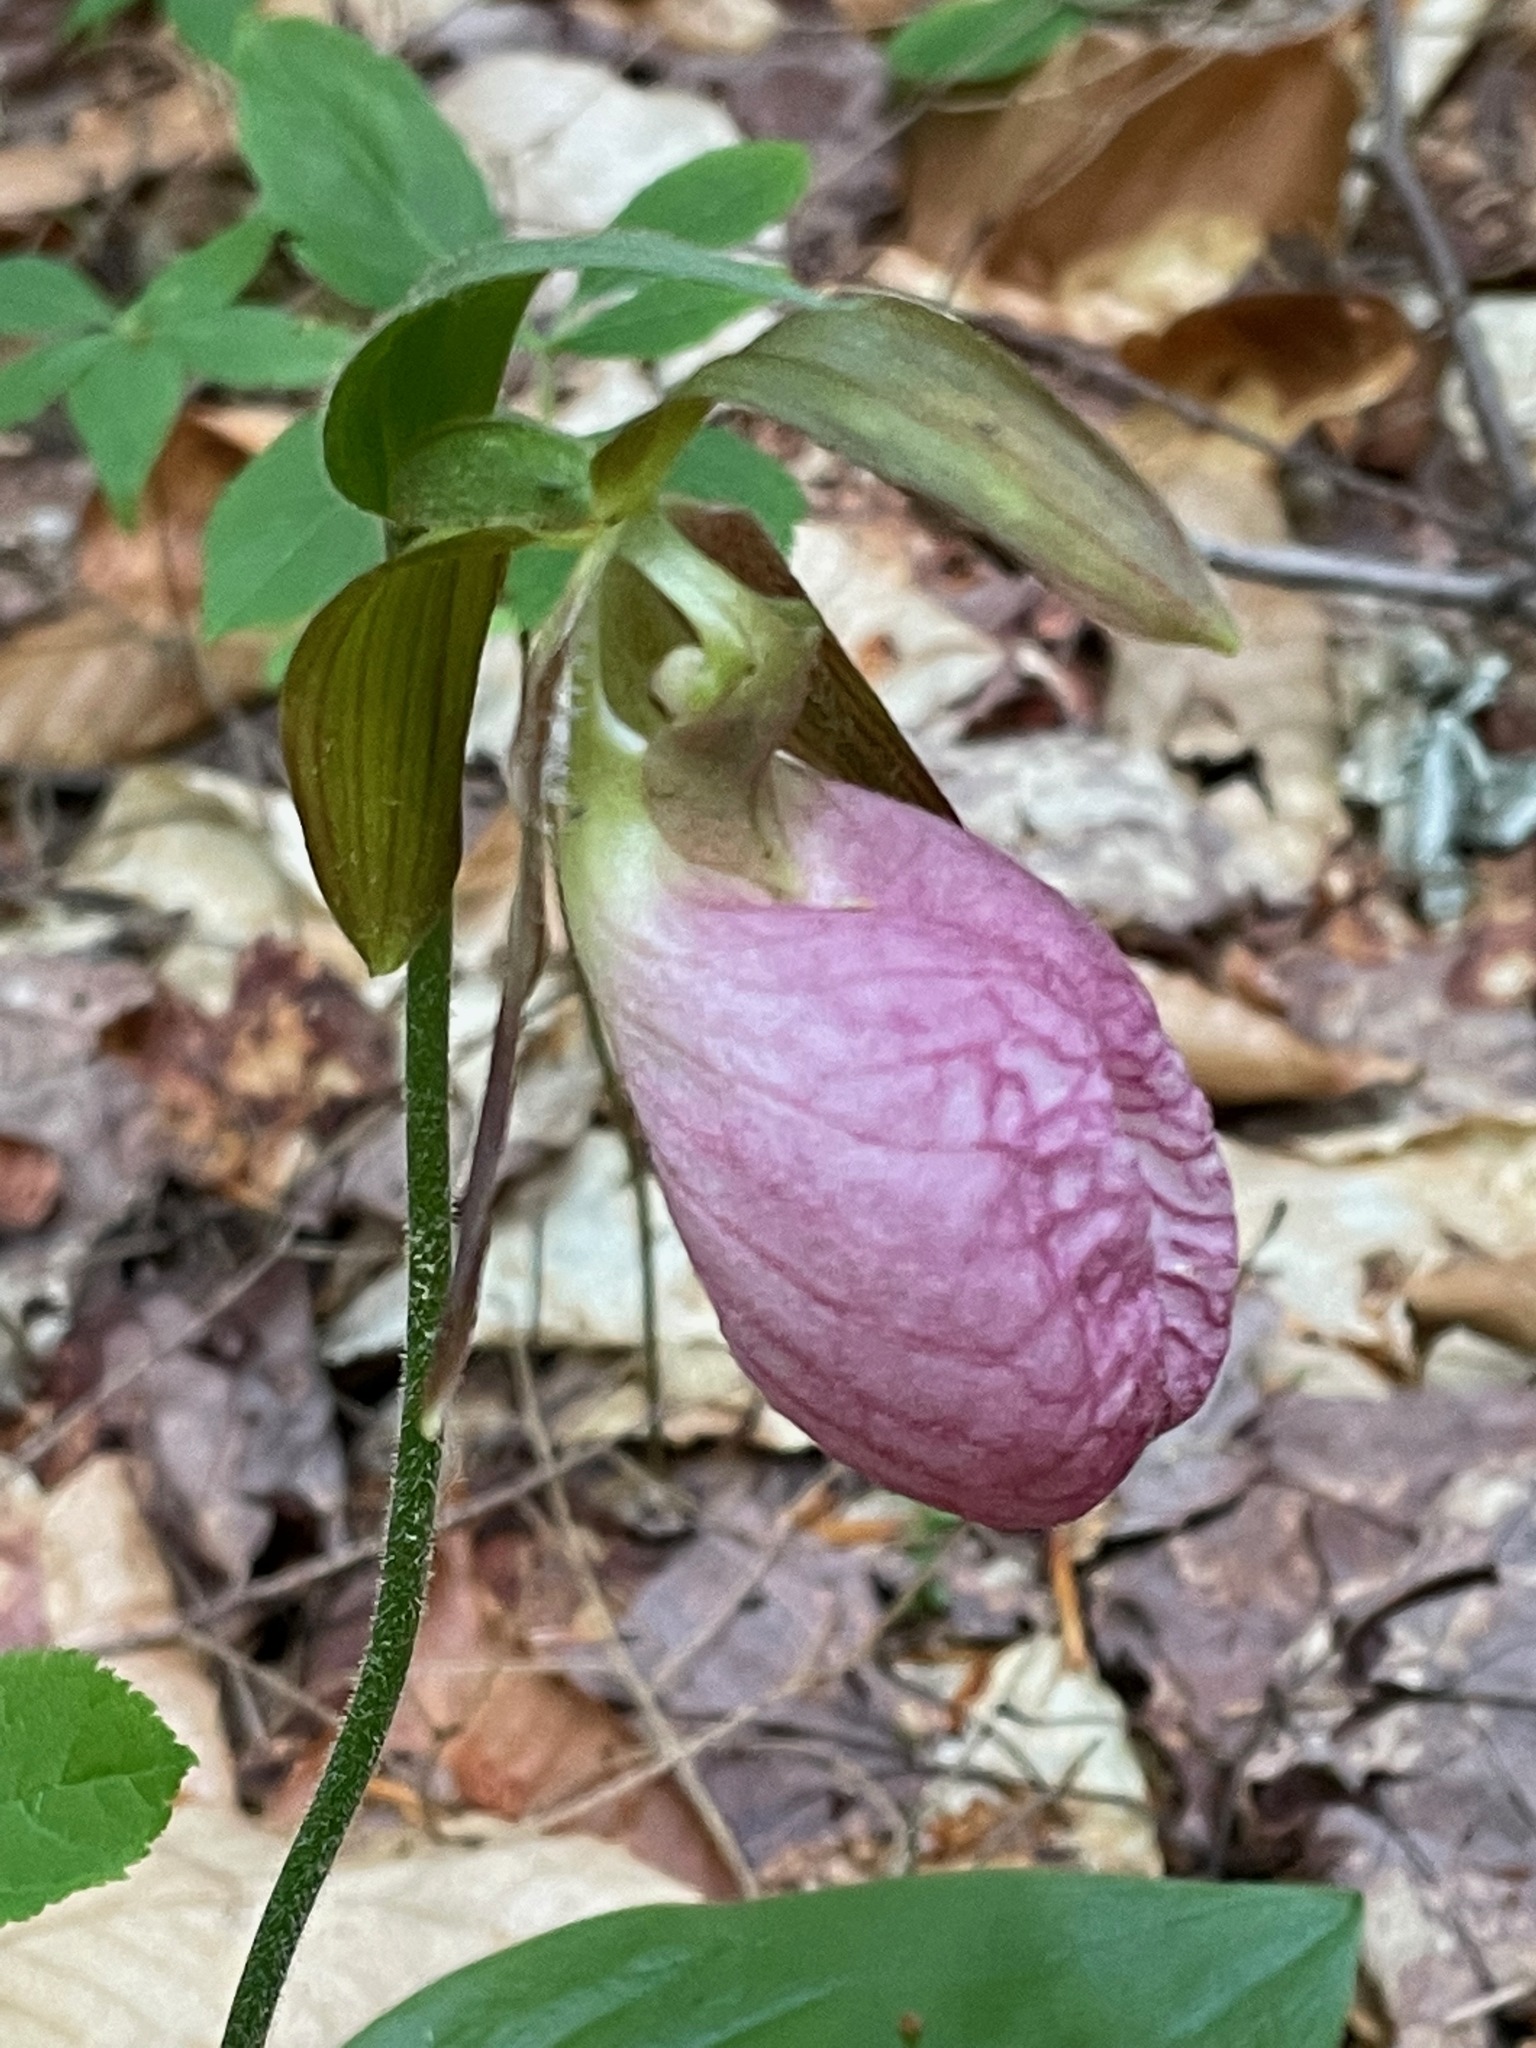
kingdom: Plantae
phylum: Tracheophyta
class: Liliopsida
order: Asparagales
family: Orchidaceae
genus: Cypripedium
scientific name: Cypripedium acaule
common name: Pink lady's-slipper
